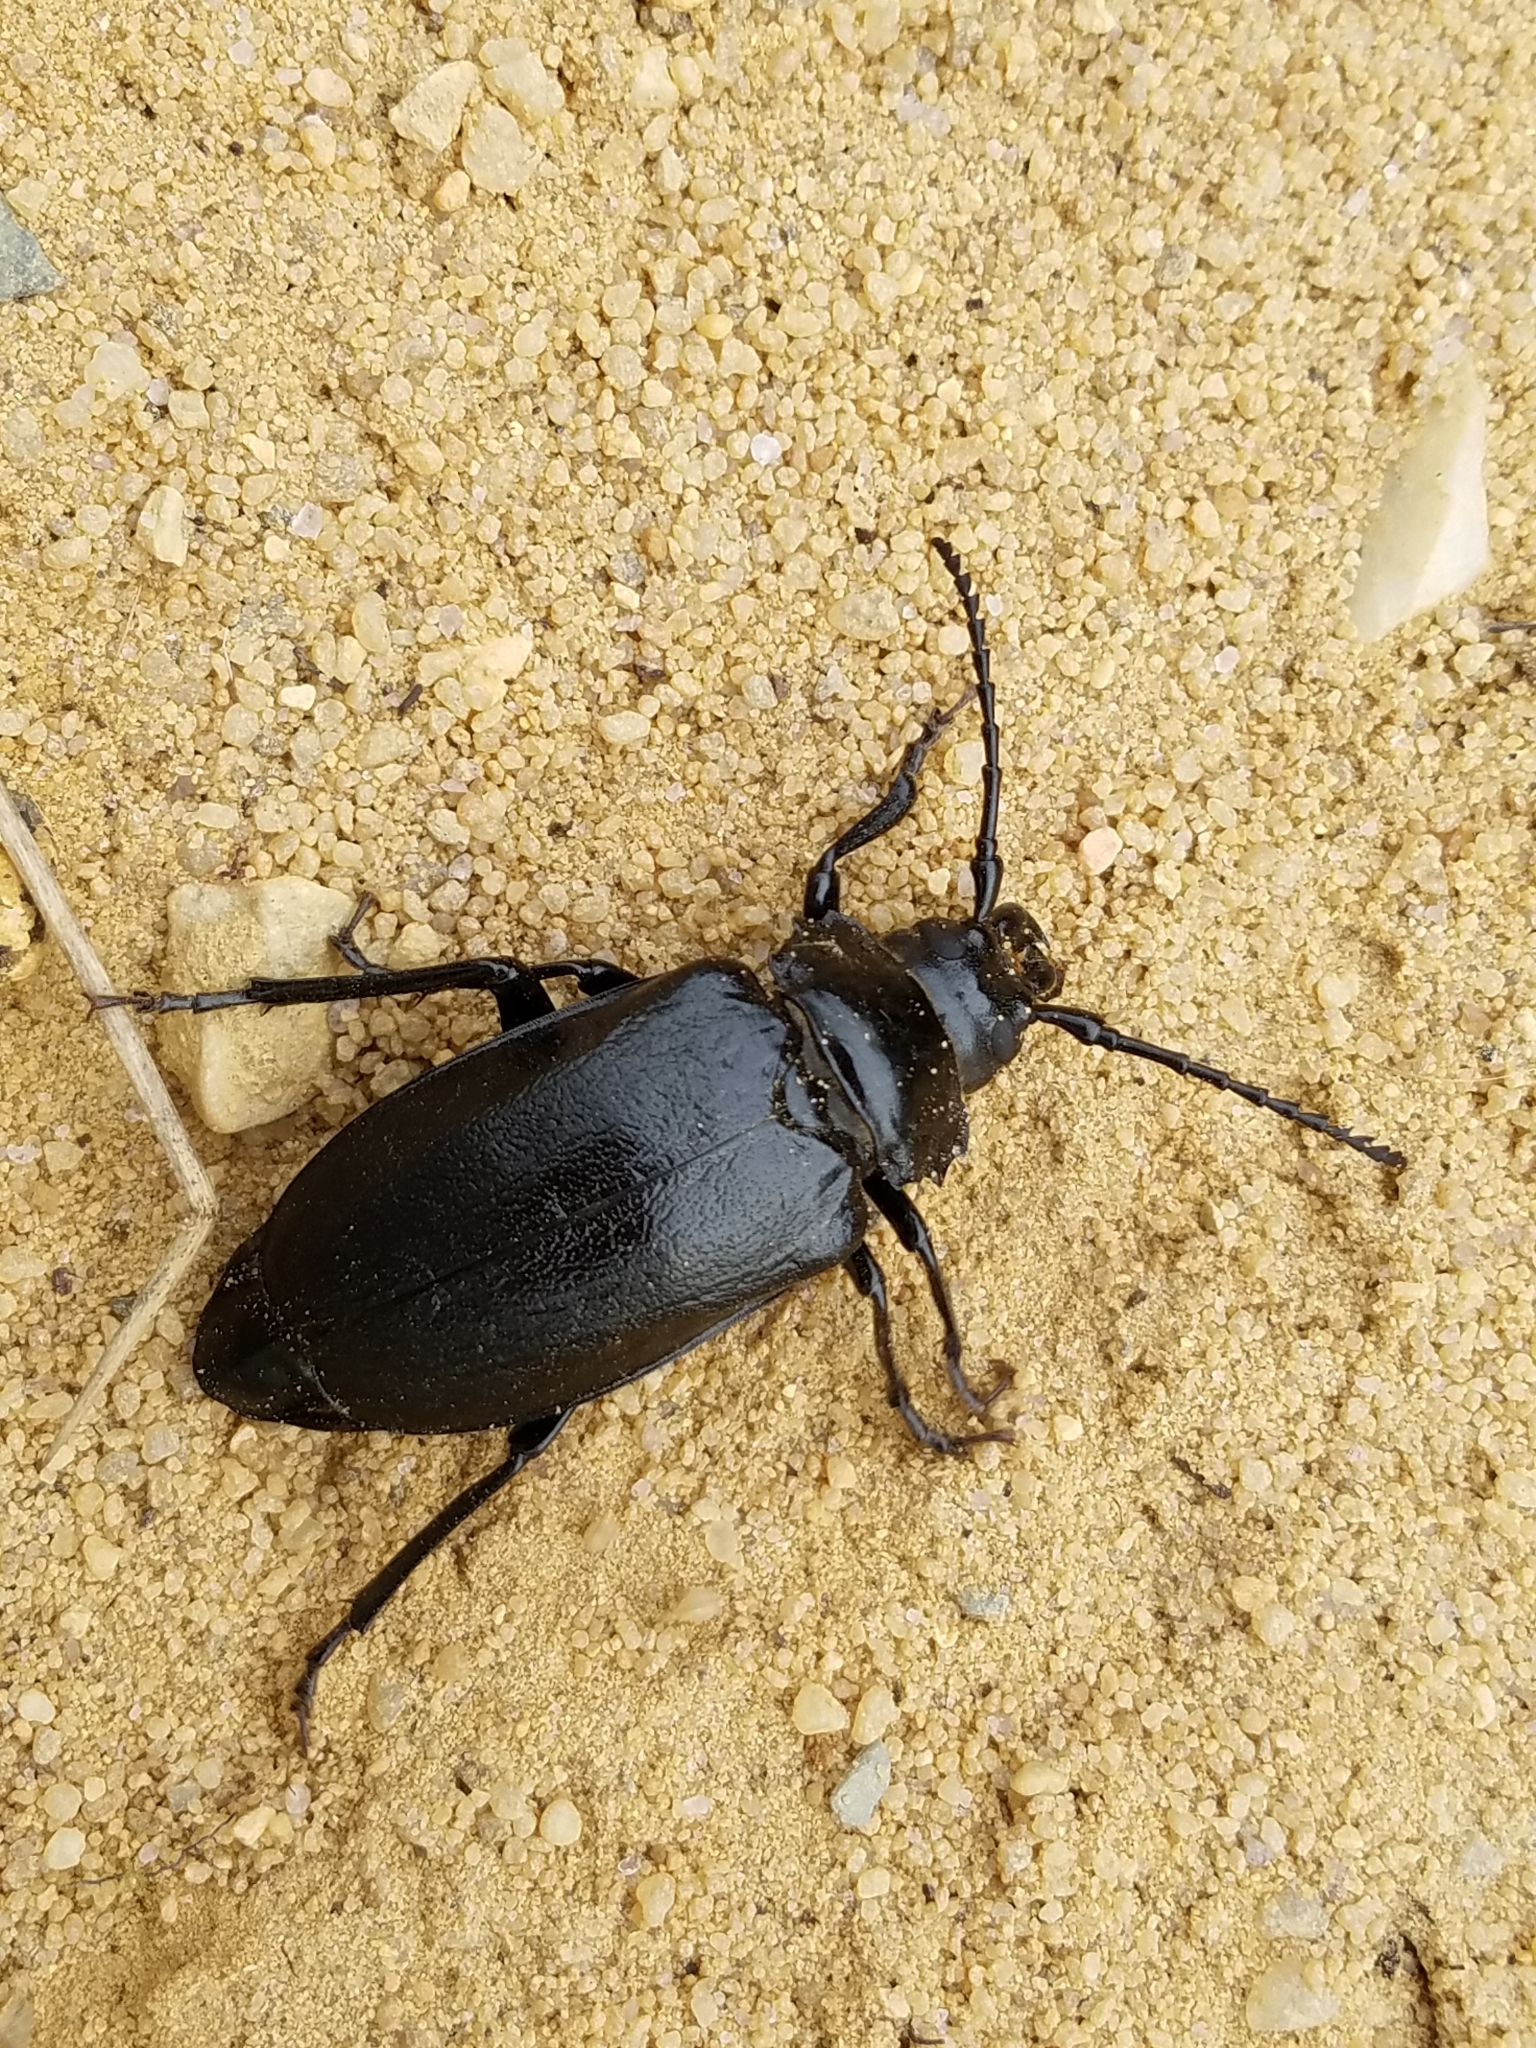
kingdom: Animalia
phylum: Arthropoda
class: Insecta
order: Coleoptera
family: Cerambycidae
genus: Prionus
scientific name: Prionus laticollis
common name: Broad necked prionus
